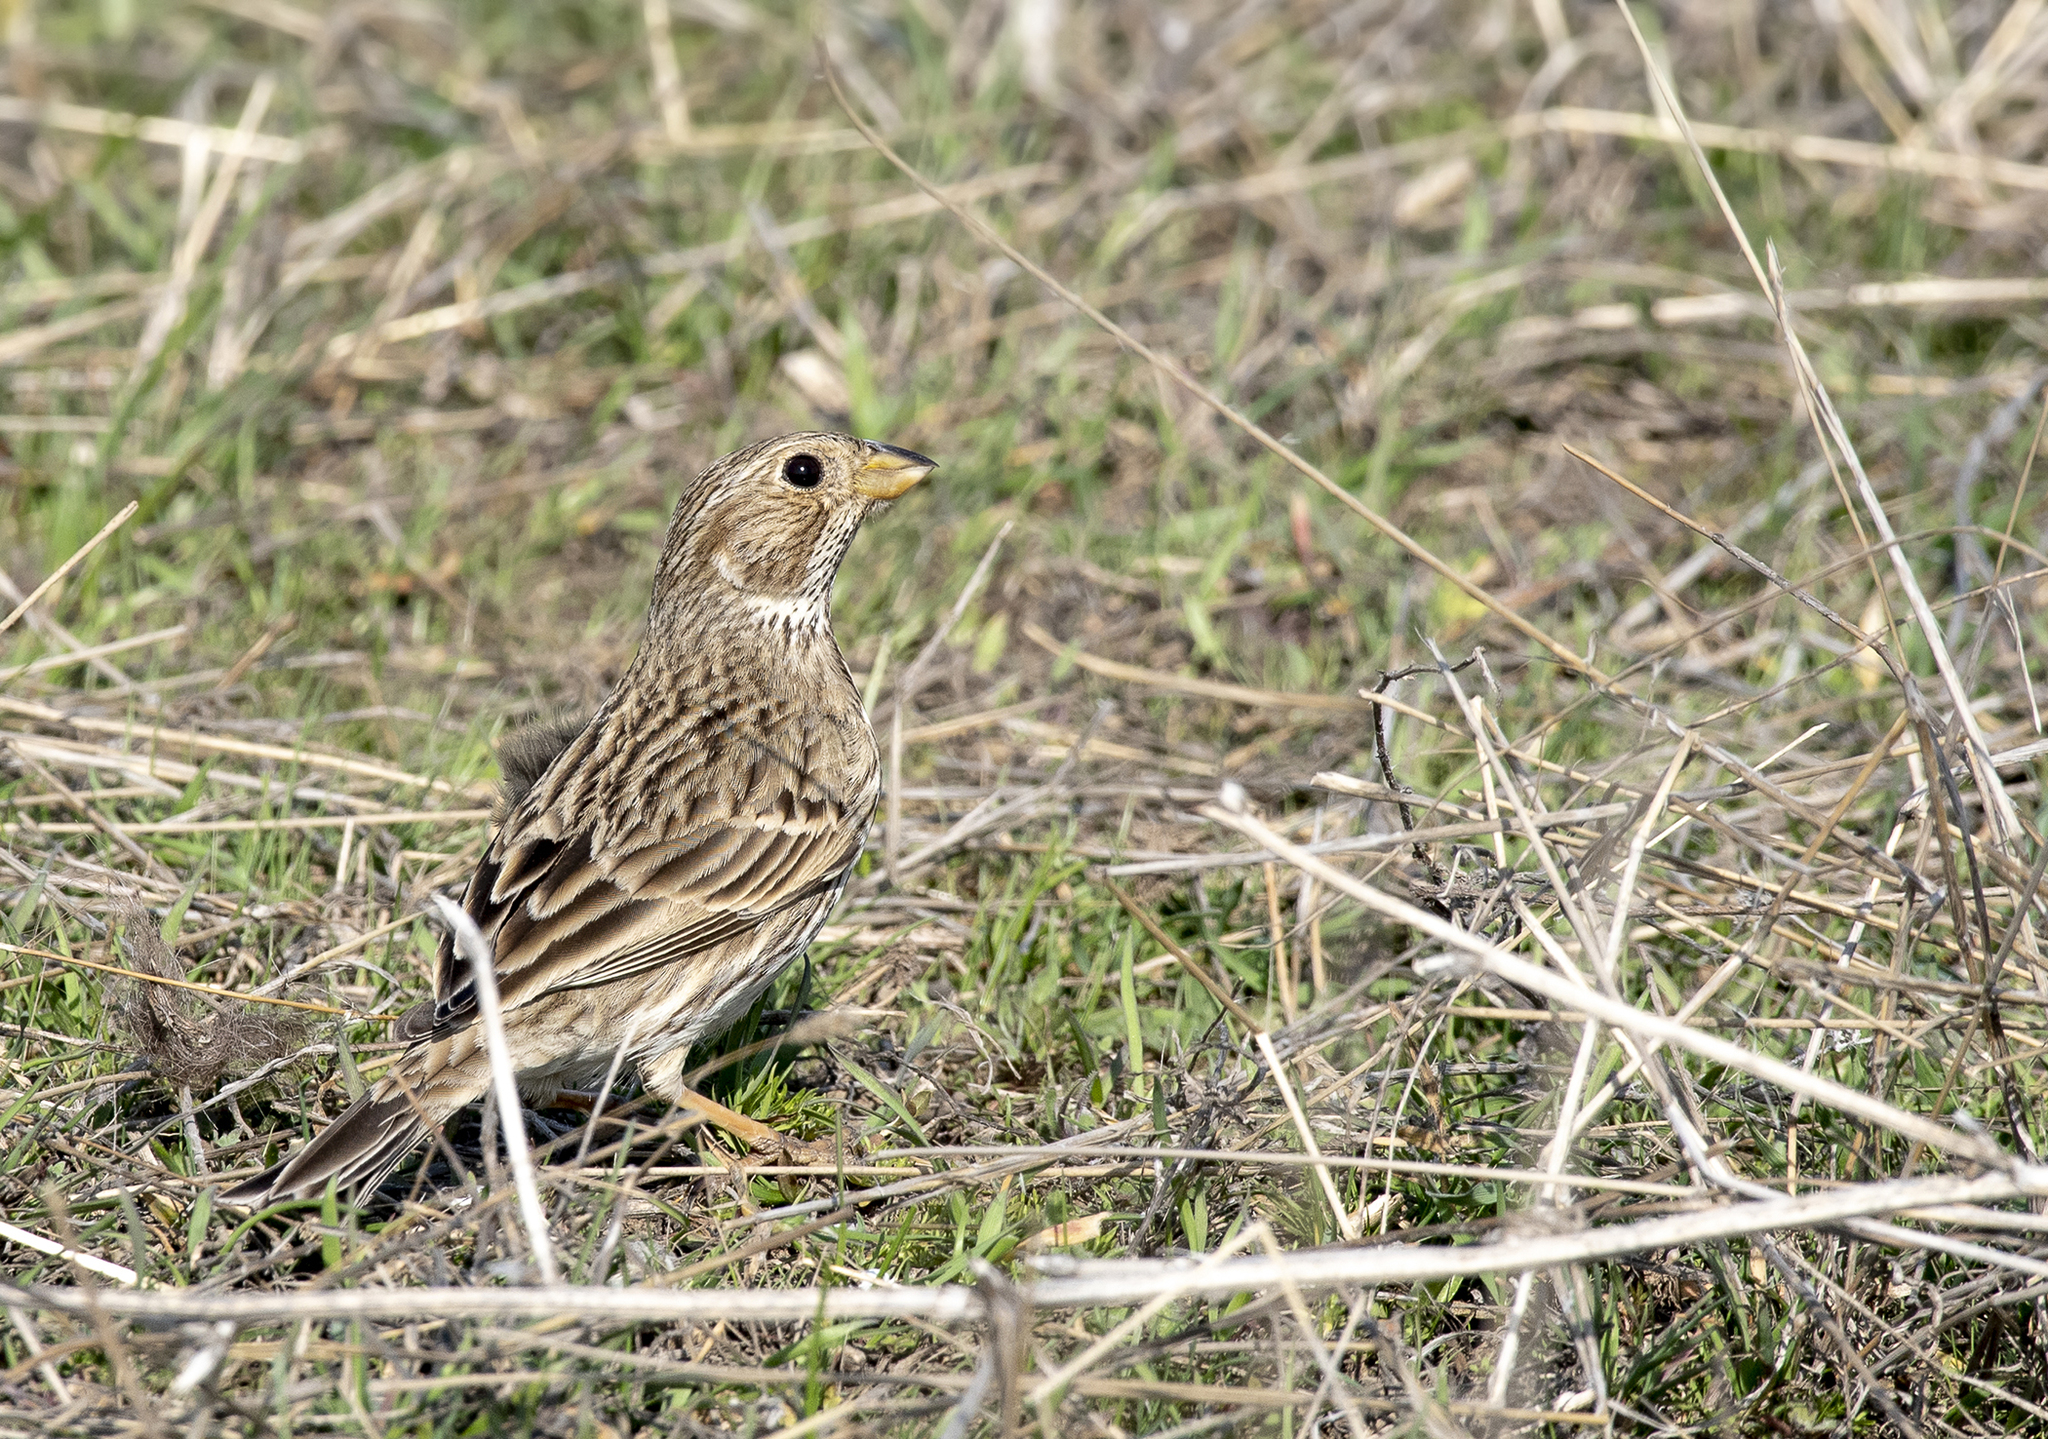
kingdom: Animalia
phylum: Chordata
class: Aves
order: Passeriformes
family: Emberizidae
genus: Emberiza
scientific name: Emberiza calandra
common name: Corn bunting
